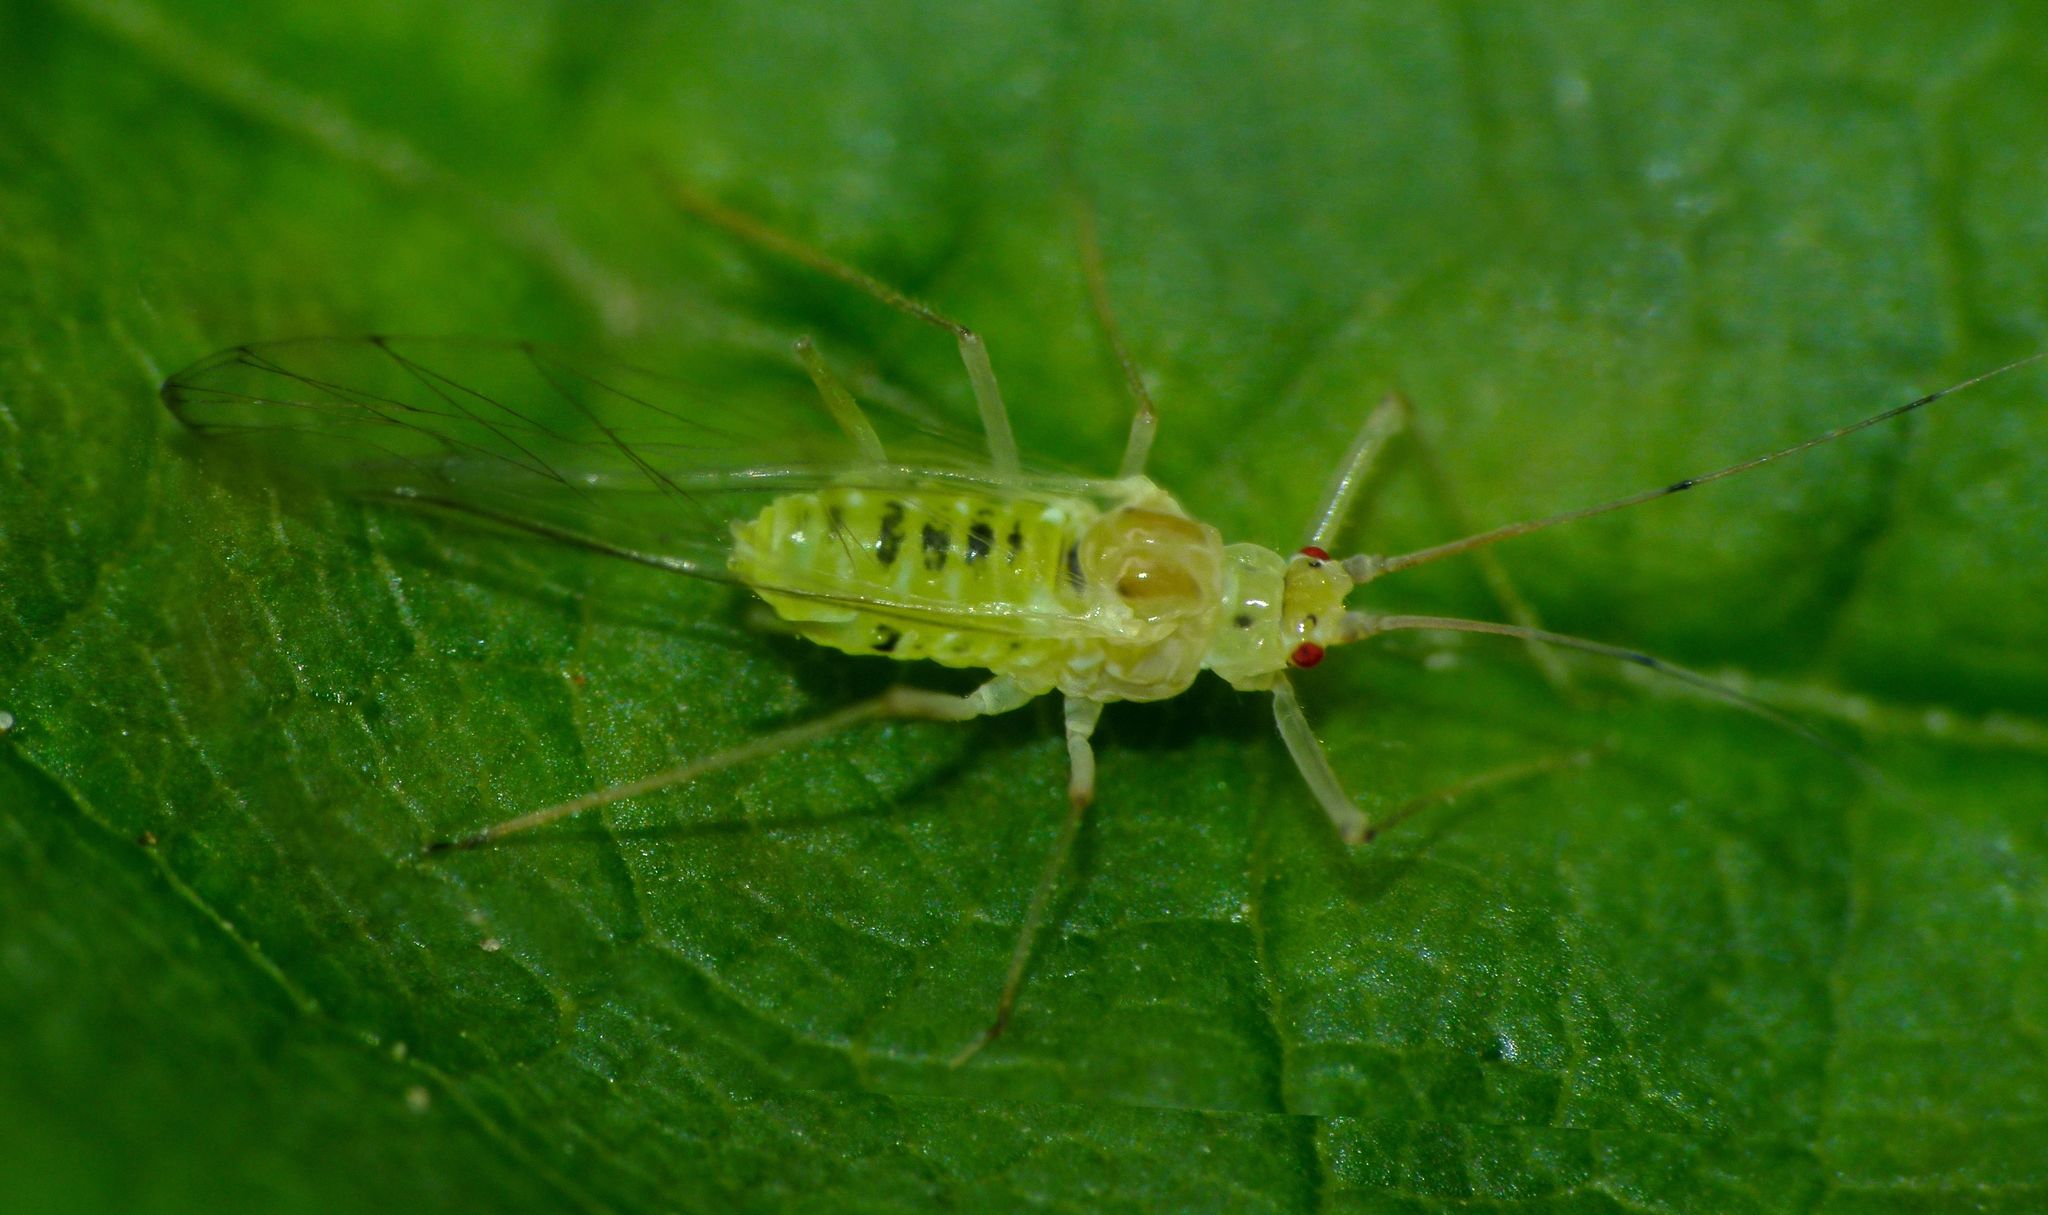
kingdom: Animalia
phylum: Arthropoda
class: Insecta
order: Hemiptera
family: Aphididae
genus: Drepanosiphum
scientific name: Drepanosiphum platanoidis
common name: Common sycamore aphid
